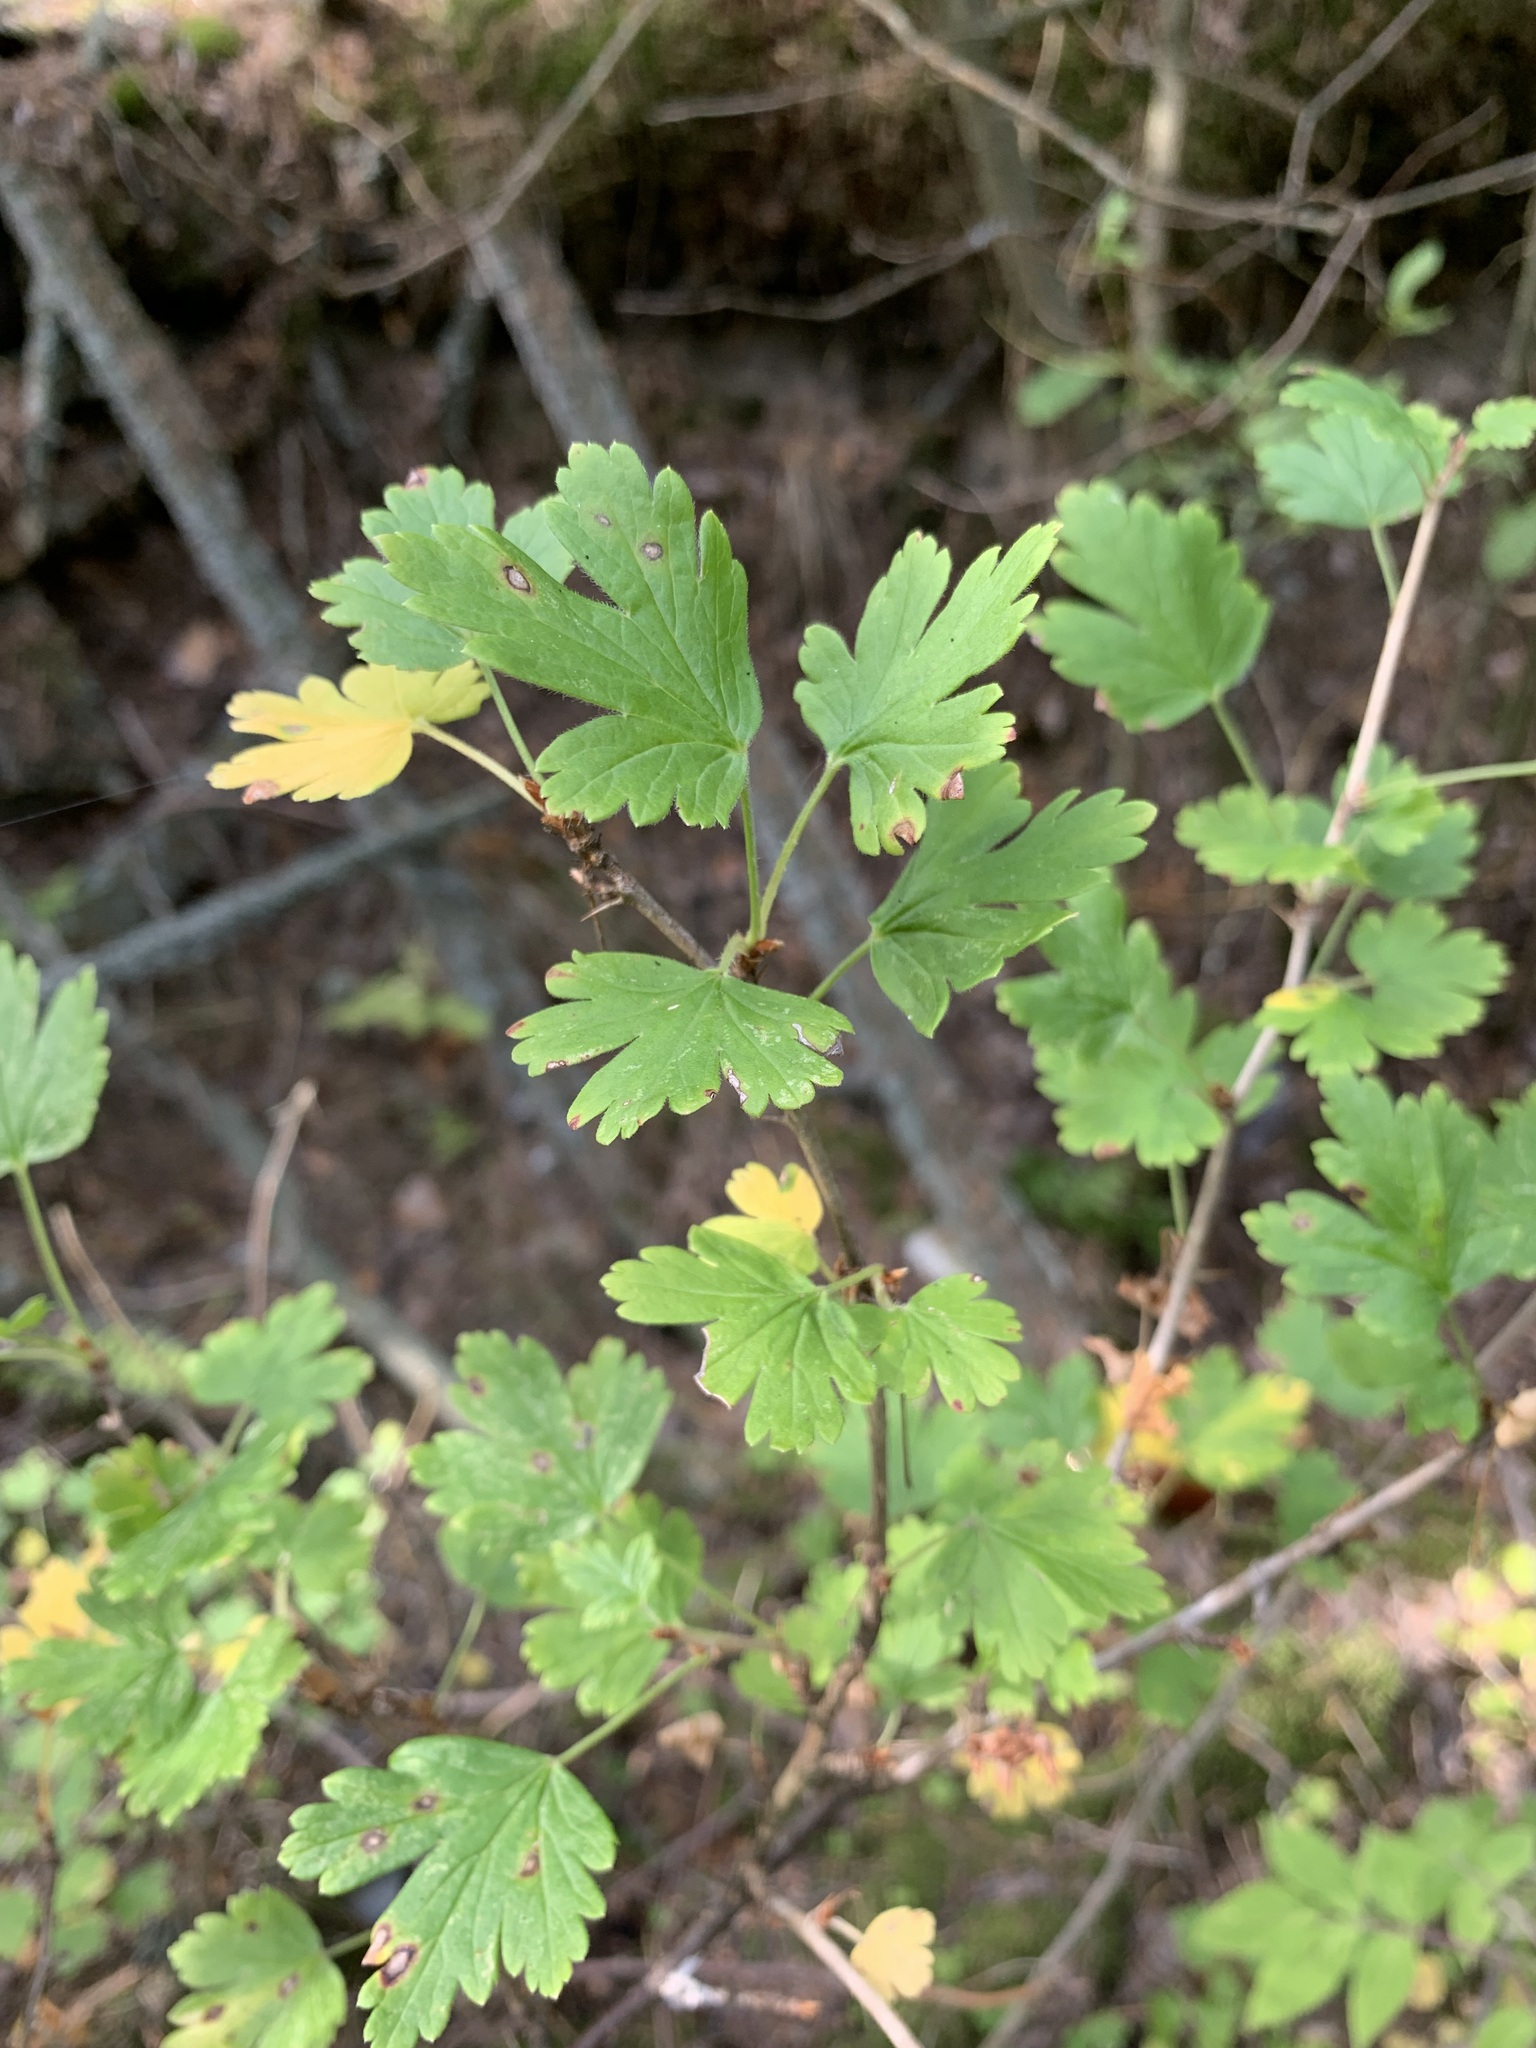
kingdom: Plantae
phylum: Tracheophyta
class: Magnoliopsida
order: Saxifragales
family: Grossulariaceae
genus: Ribes
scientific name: Ribes uva-crispa
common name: Gooseberry
